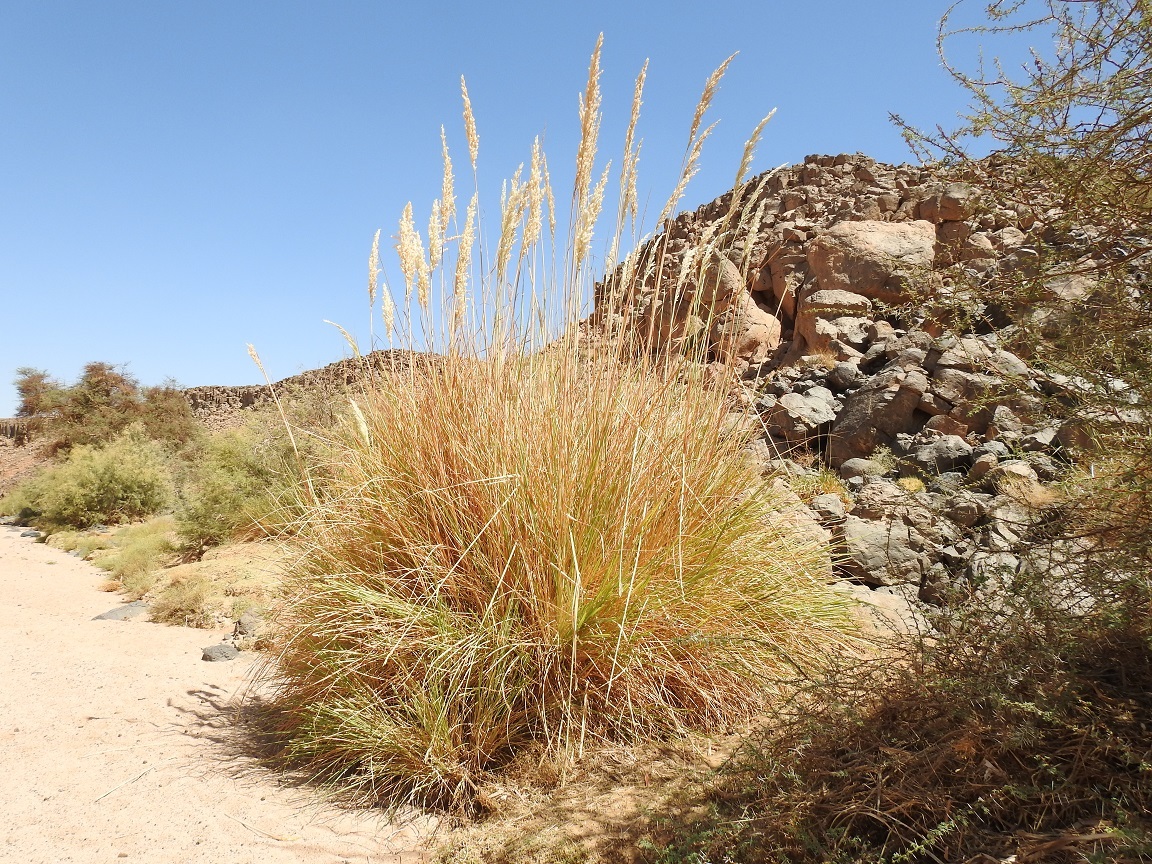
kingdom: Plantae
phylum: Tracheophyta
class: Liliopsida
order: Poales
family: Poaceae
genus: Tripidium
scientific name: Tripidium ravennae
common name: Ravenna grass
